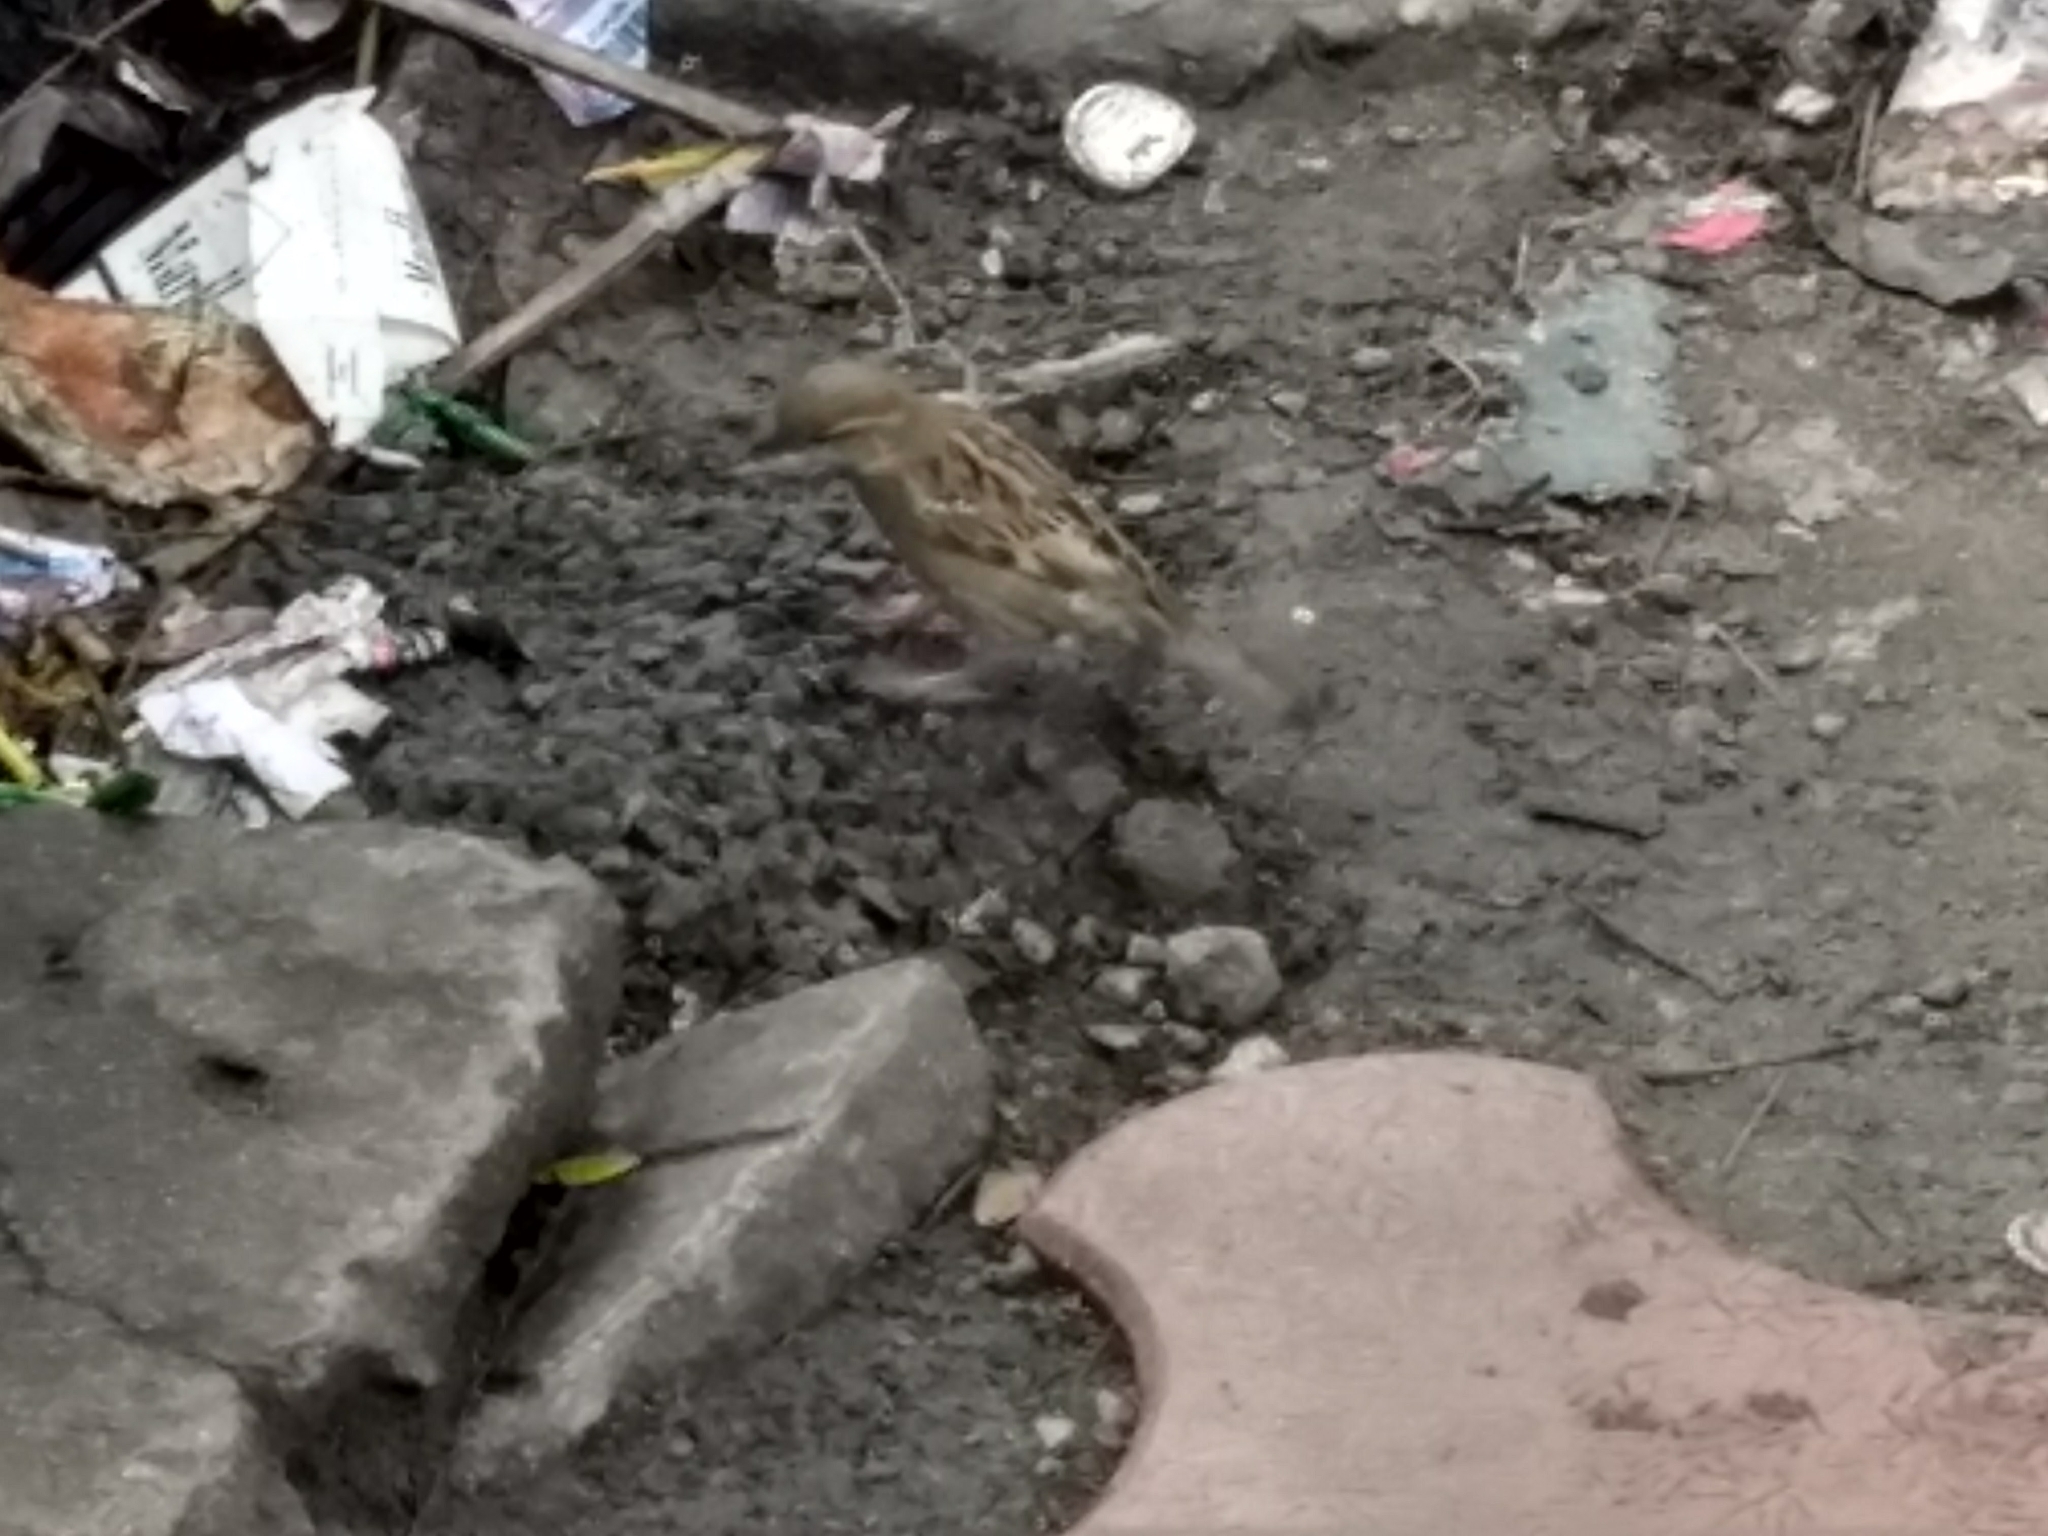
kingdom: Animalia
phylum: Chordata
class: Aves
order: Passeriformes
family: Passeridae
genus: Passer
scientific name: Passer domesticus
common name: House sparrow
